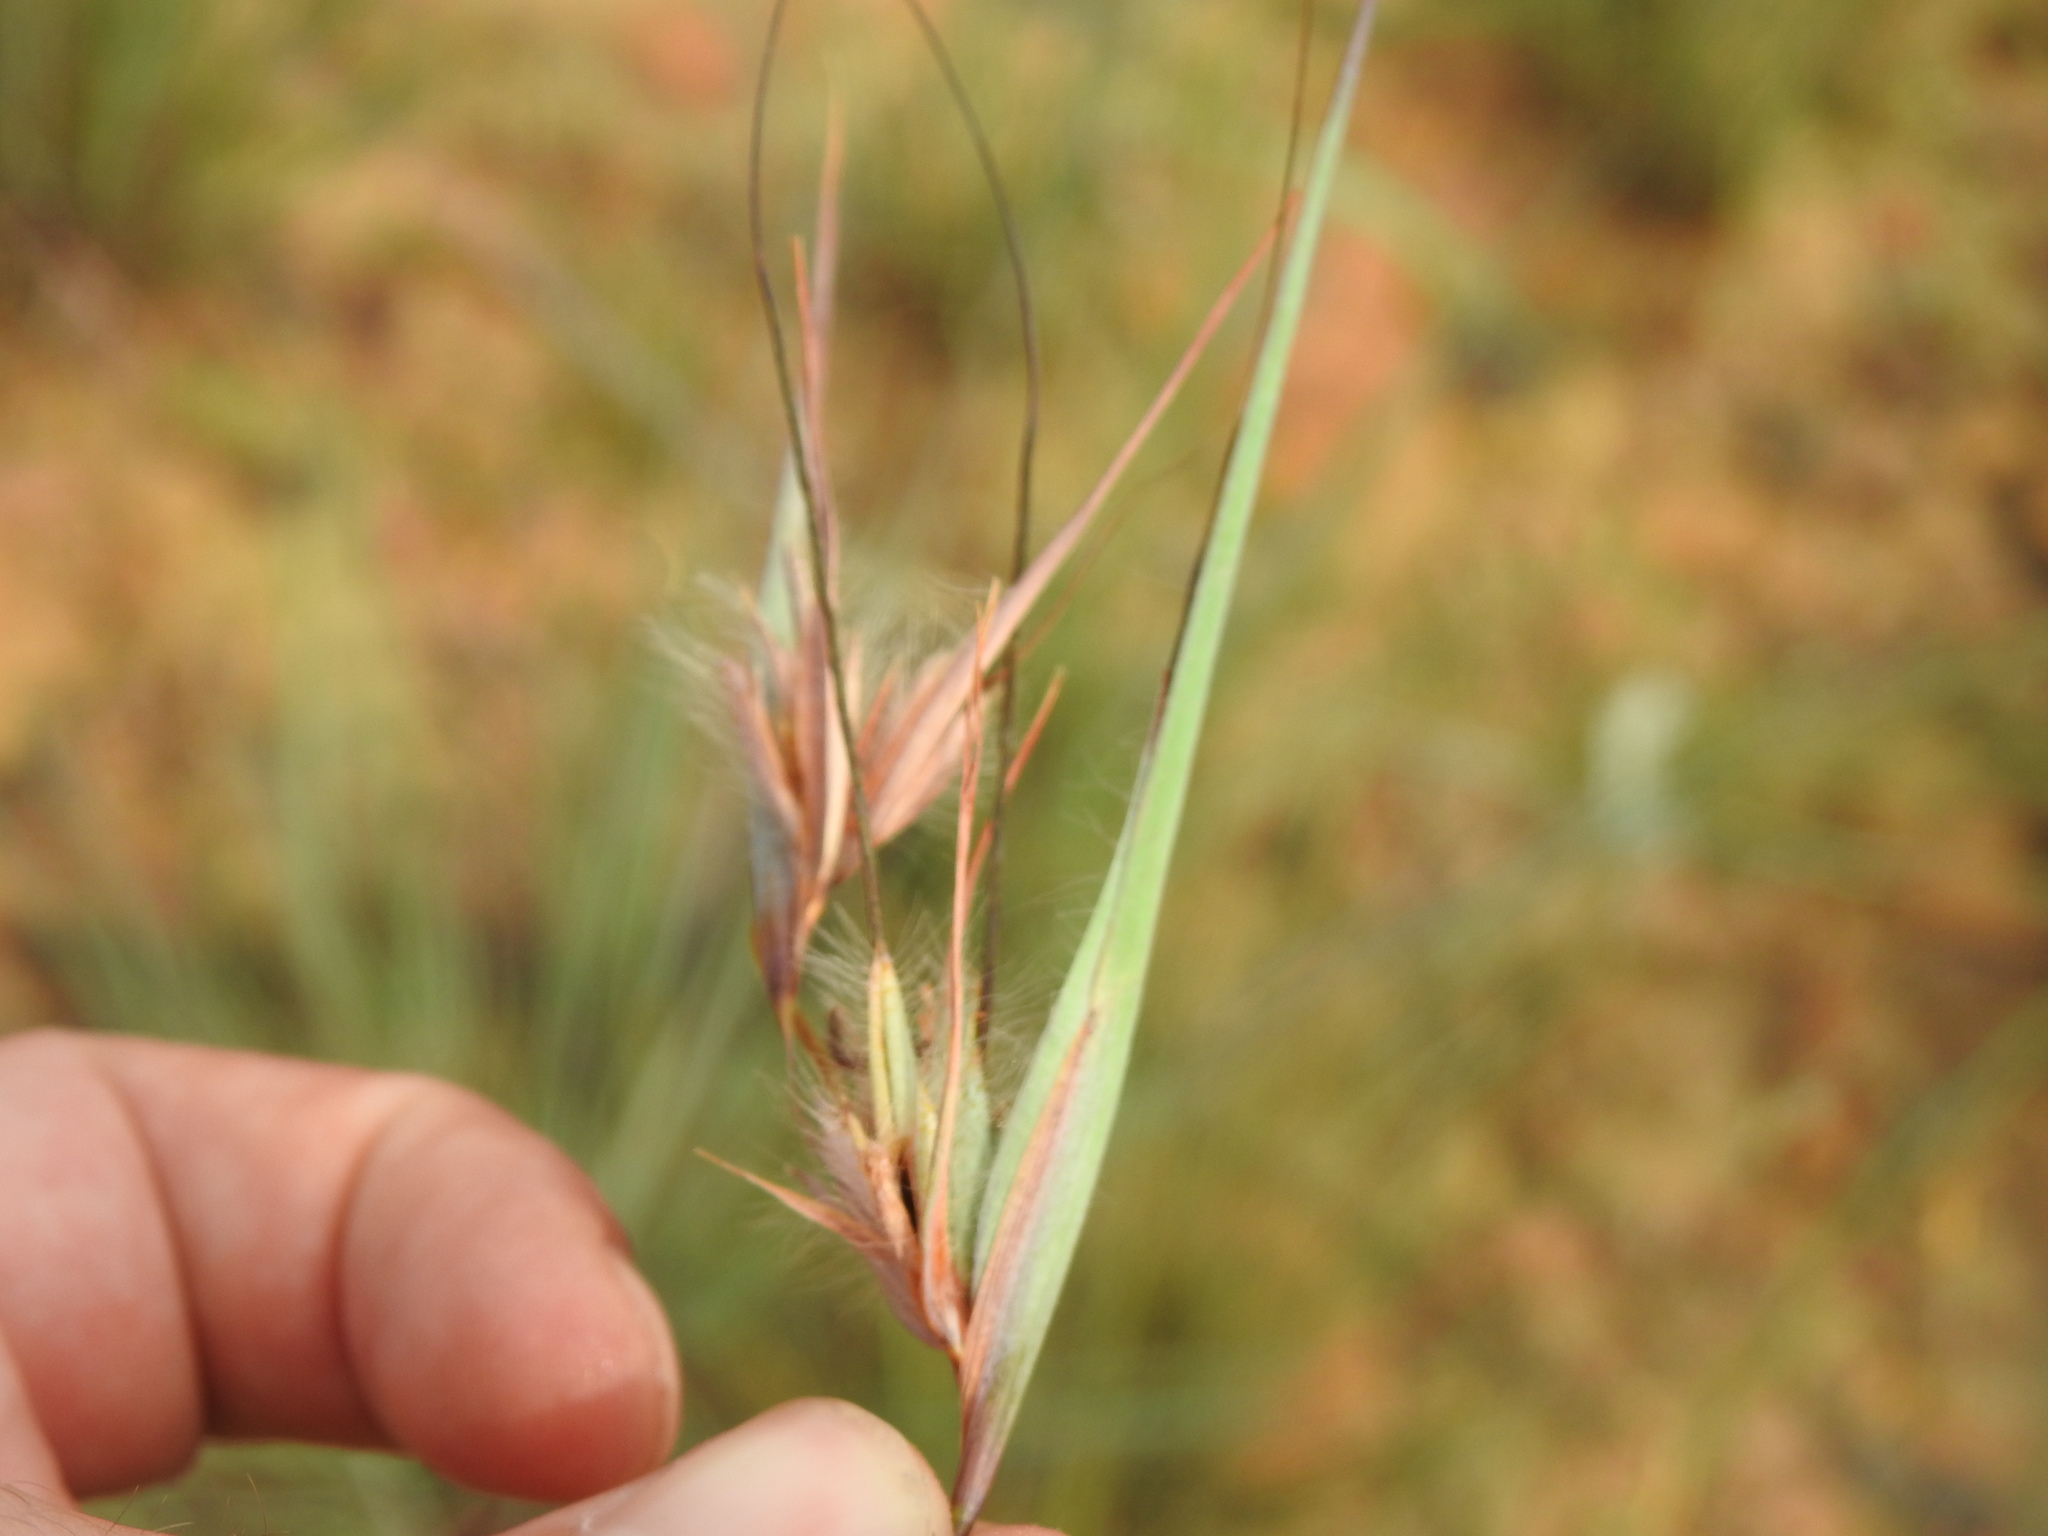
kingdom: Plantae
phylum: Tracheophyta
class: Liliopsida
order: Poales
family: Poaceae
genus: Themeda
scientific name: Themeda triandra
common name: Kangaroo grass
